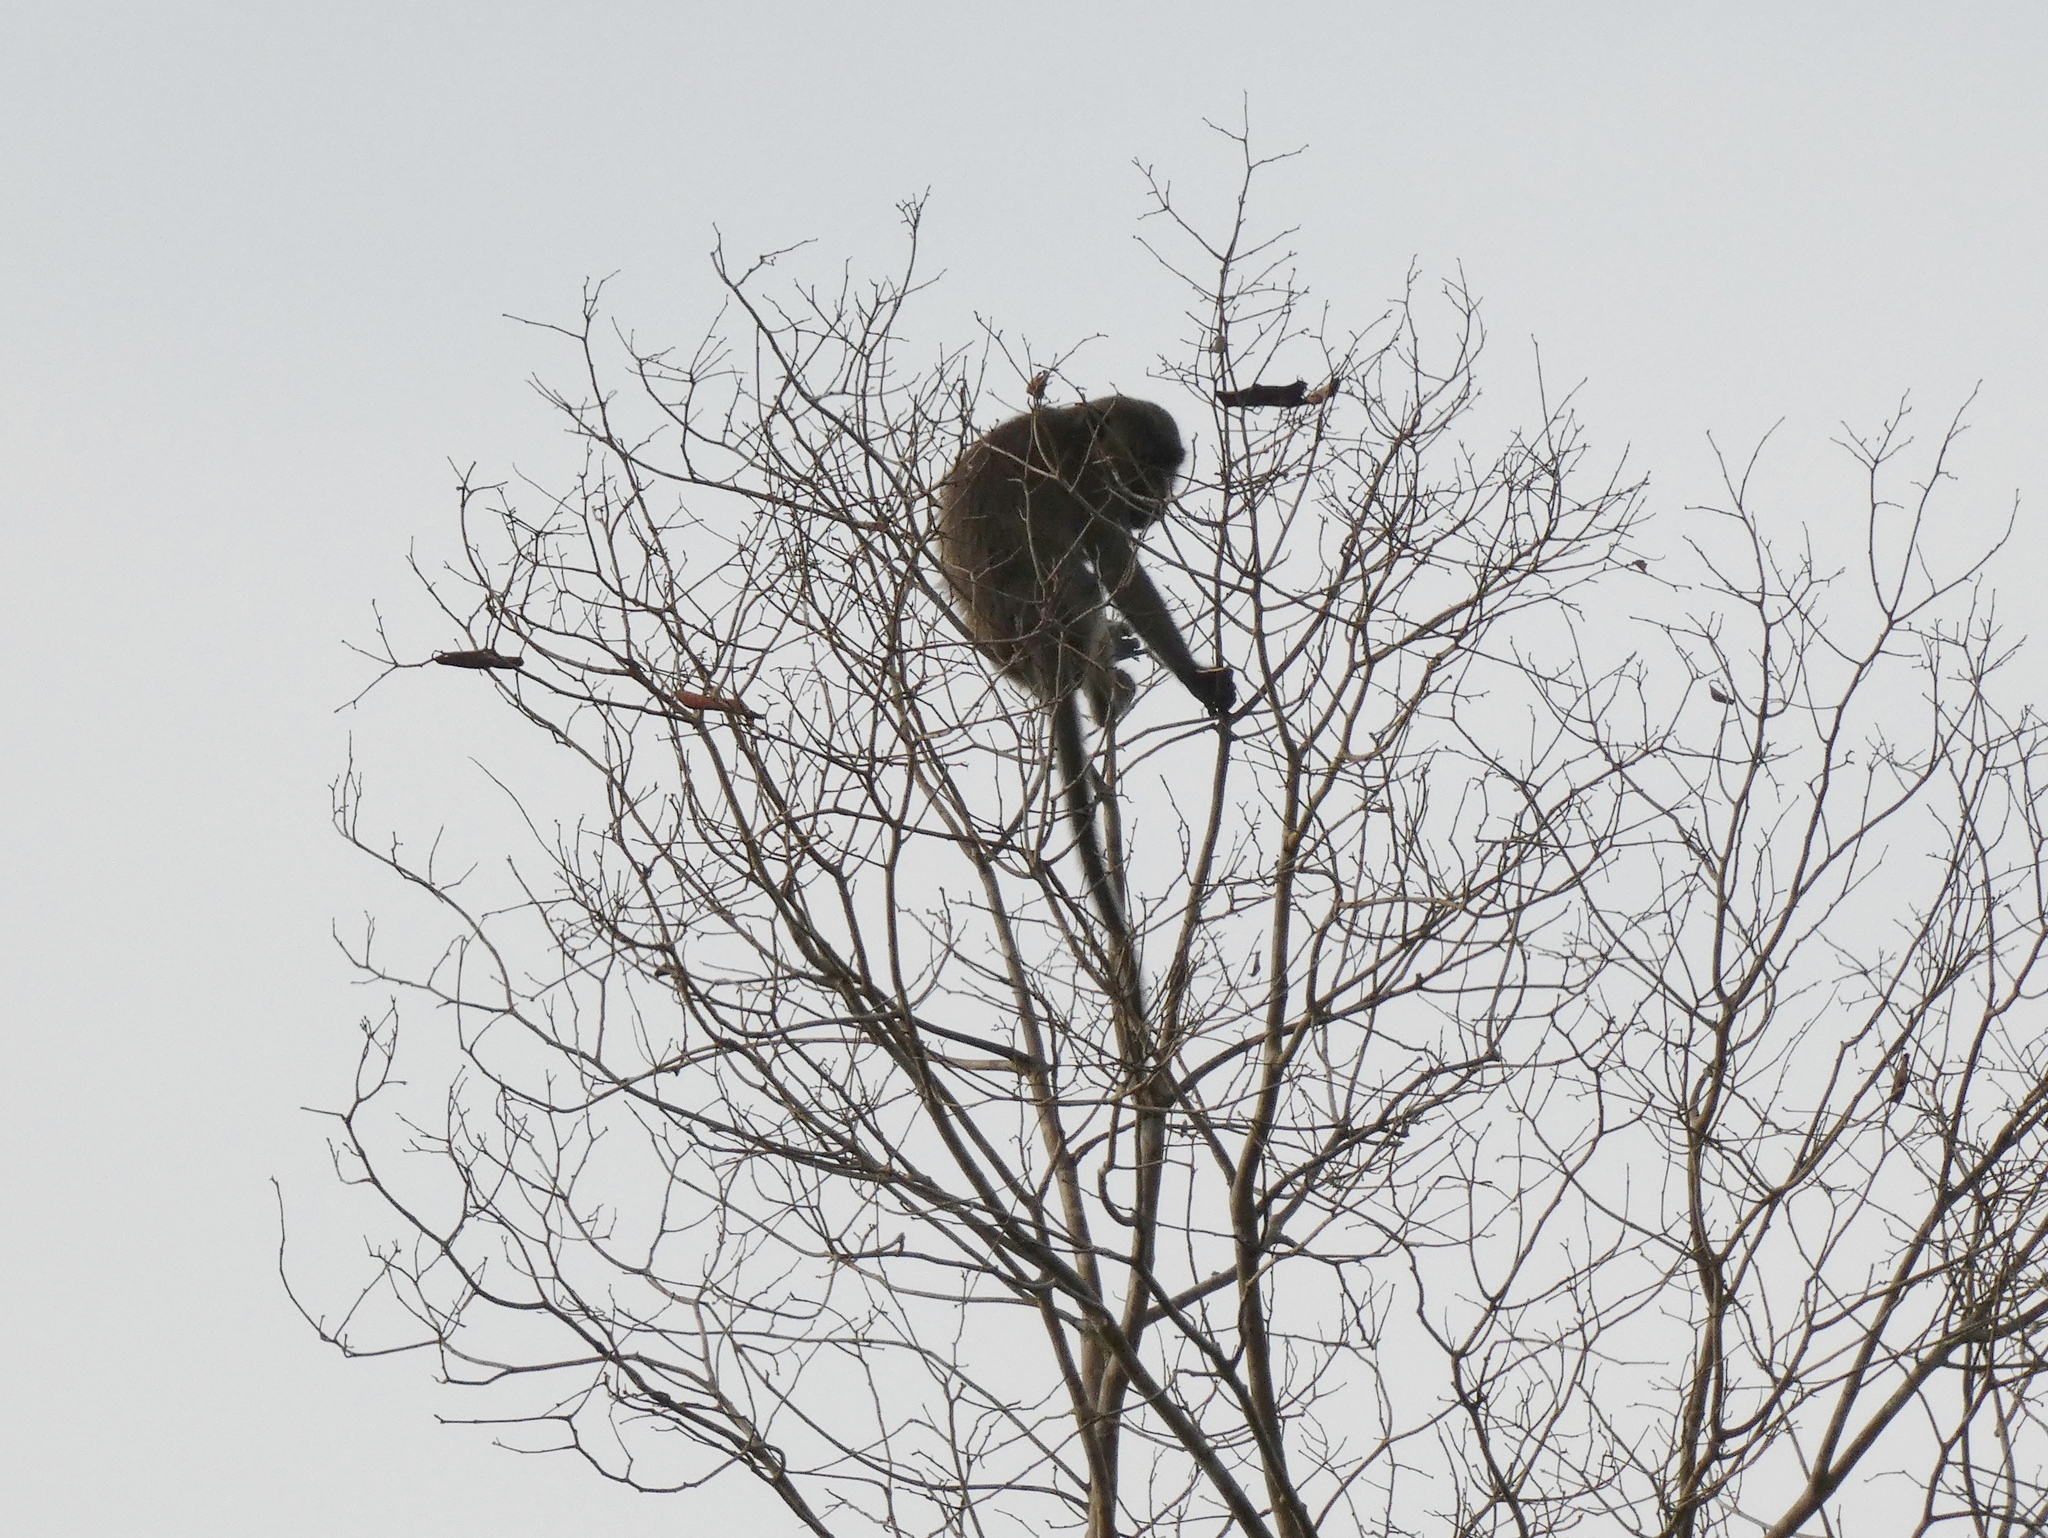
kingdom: Animalia
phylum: Chordata
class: Mammalia
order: Primates
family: Cercopithecidae
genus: Macaca
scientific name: Macaca fascicularis
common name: Crab-eating macaque
